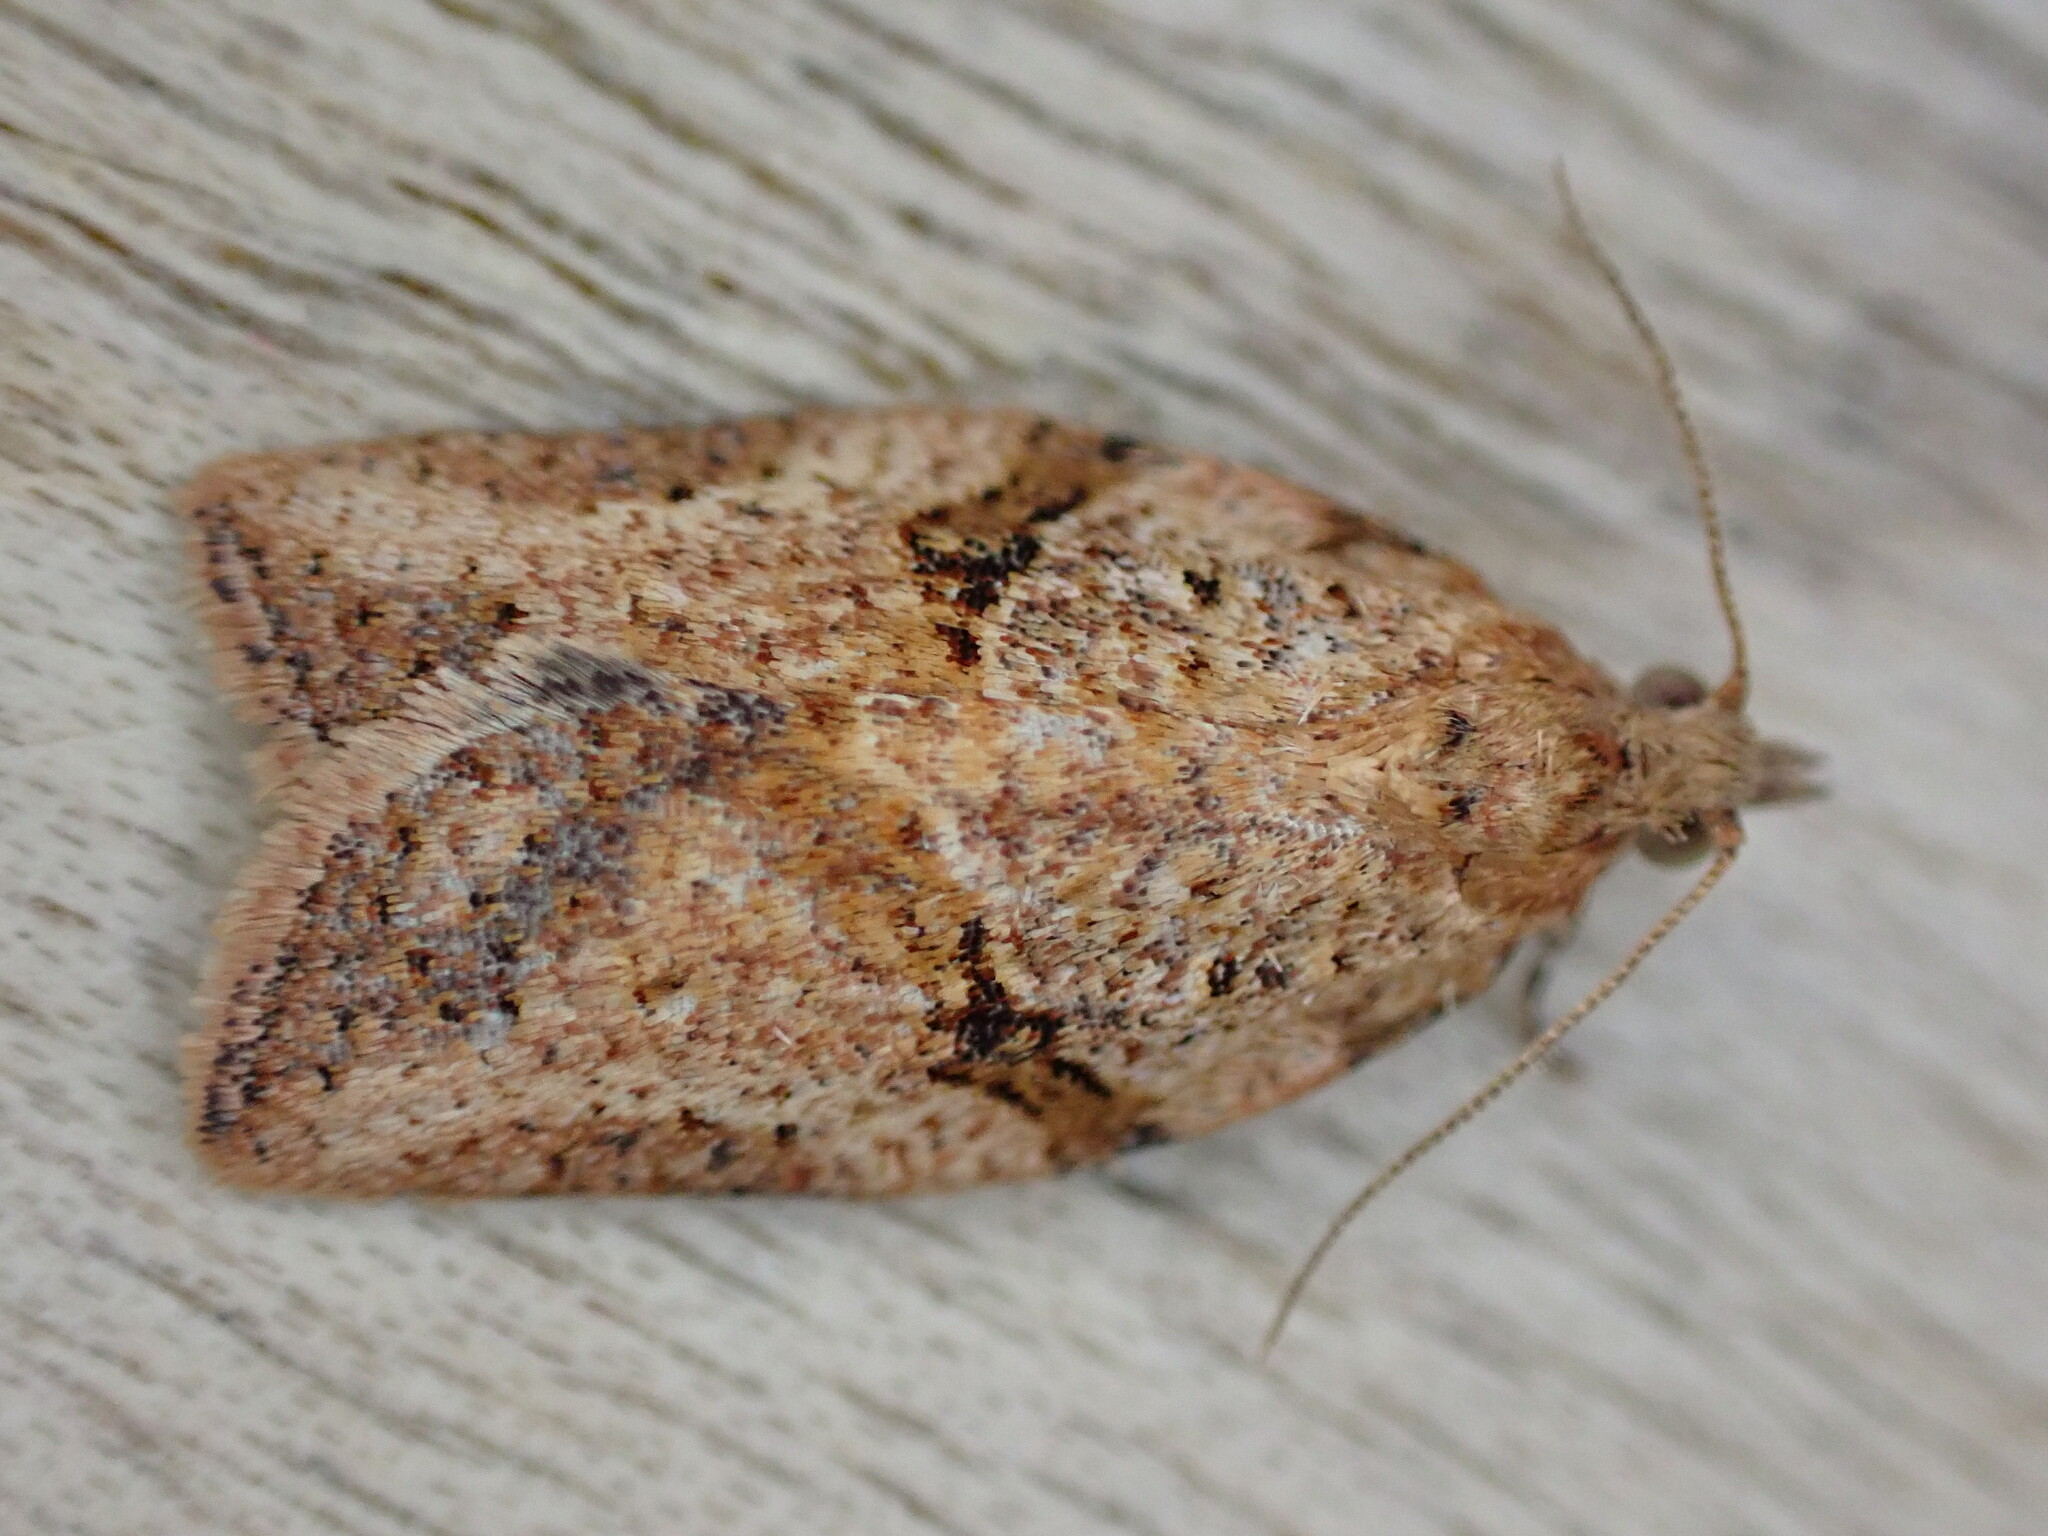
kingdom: Animalia
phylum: Arthropoda
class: Insecta
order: Lepidoptera
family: Tortricidae
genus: Epiphyas
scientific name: Epiphyas postvittana
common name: Light brown apple moth
